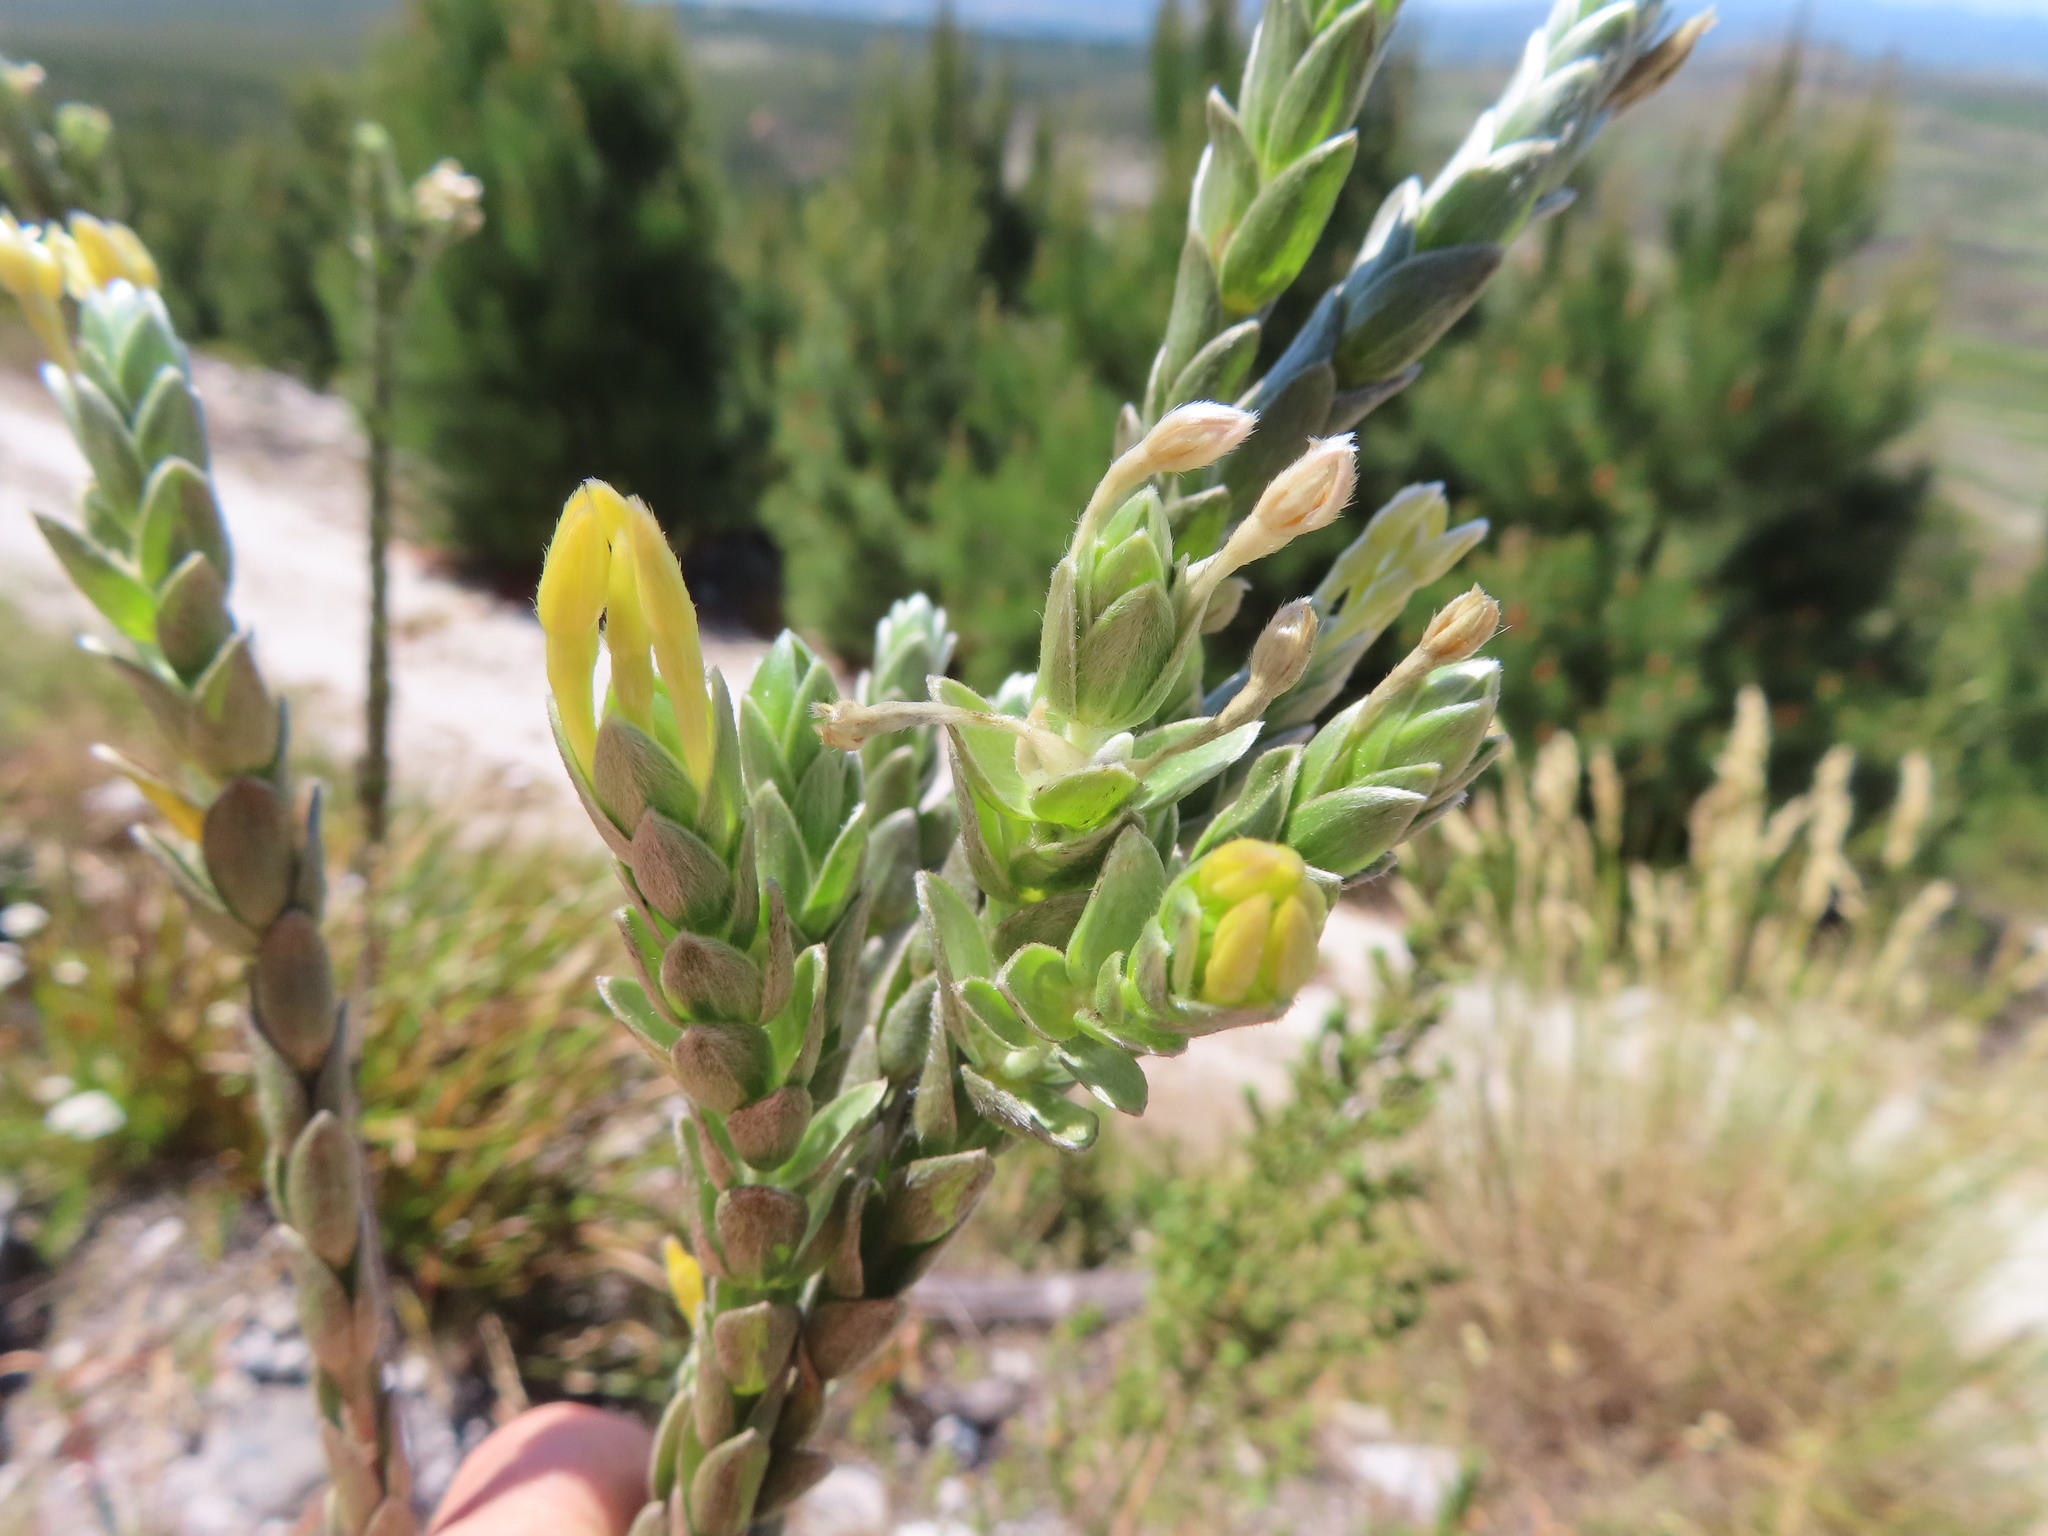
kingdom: Plantae
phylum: Tracheophyta
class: Magnoliopsida
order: Malvales
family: Thymelaeaceae
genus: Gnidia
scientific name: Gnidia anomala
